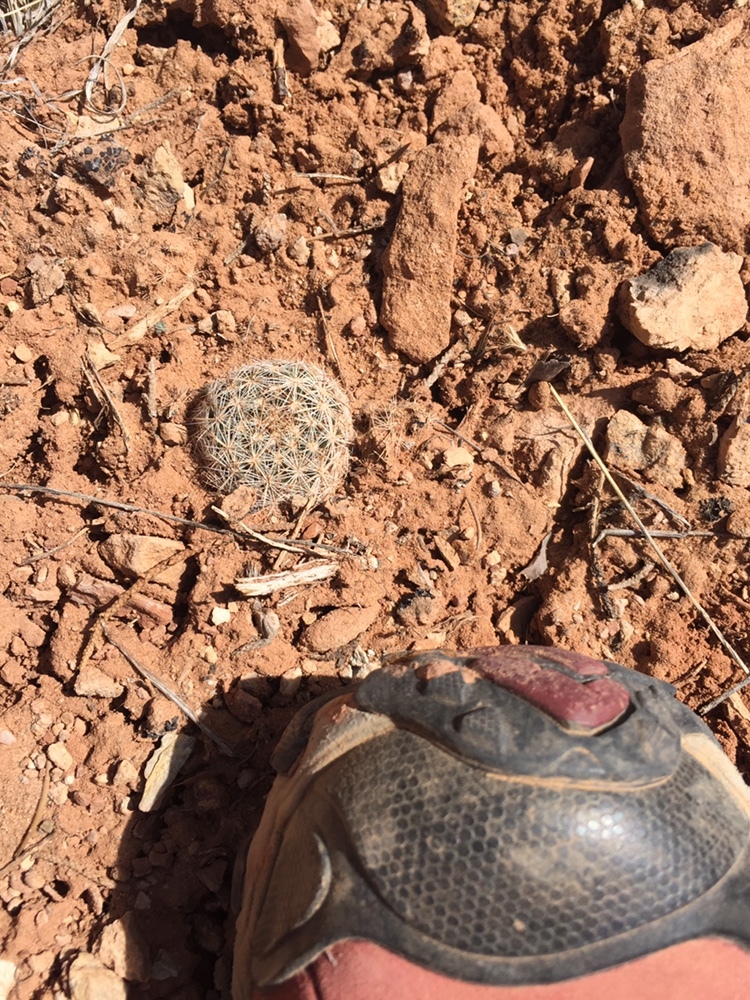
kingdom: Plantae
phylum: Tracheophyta
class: Magnoliopsida
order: Caryophyllales
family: Cactaceae
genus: Pelecyphora
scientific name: Pelecyphora vivipara
